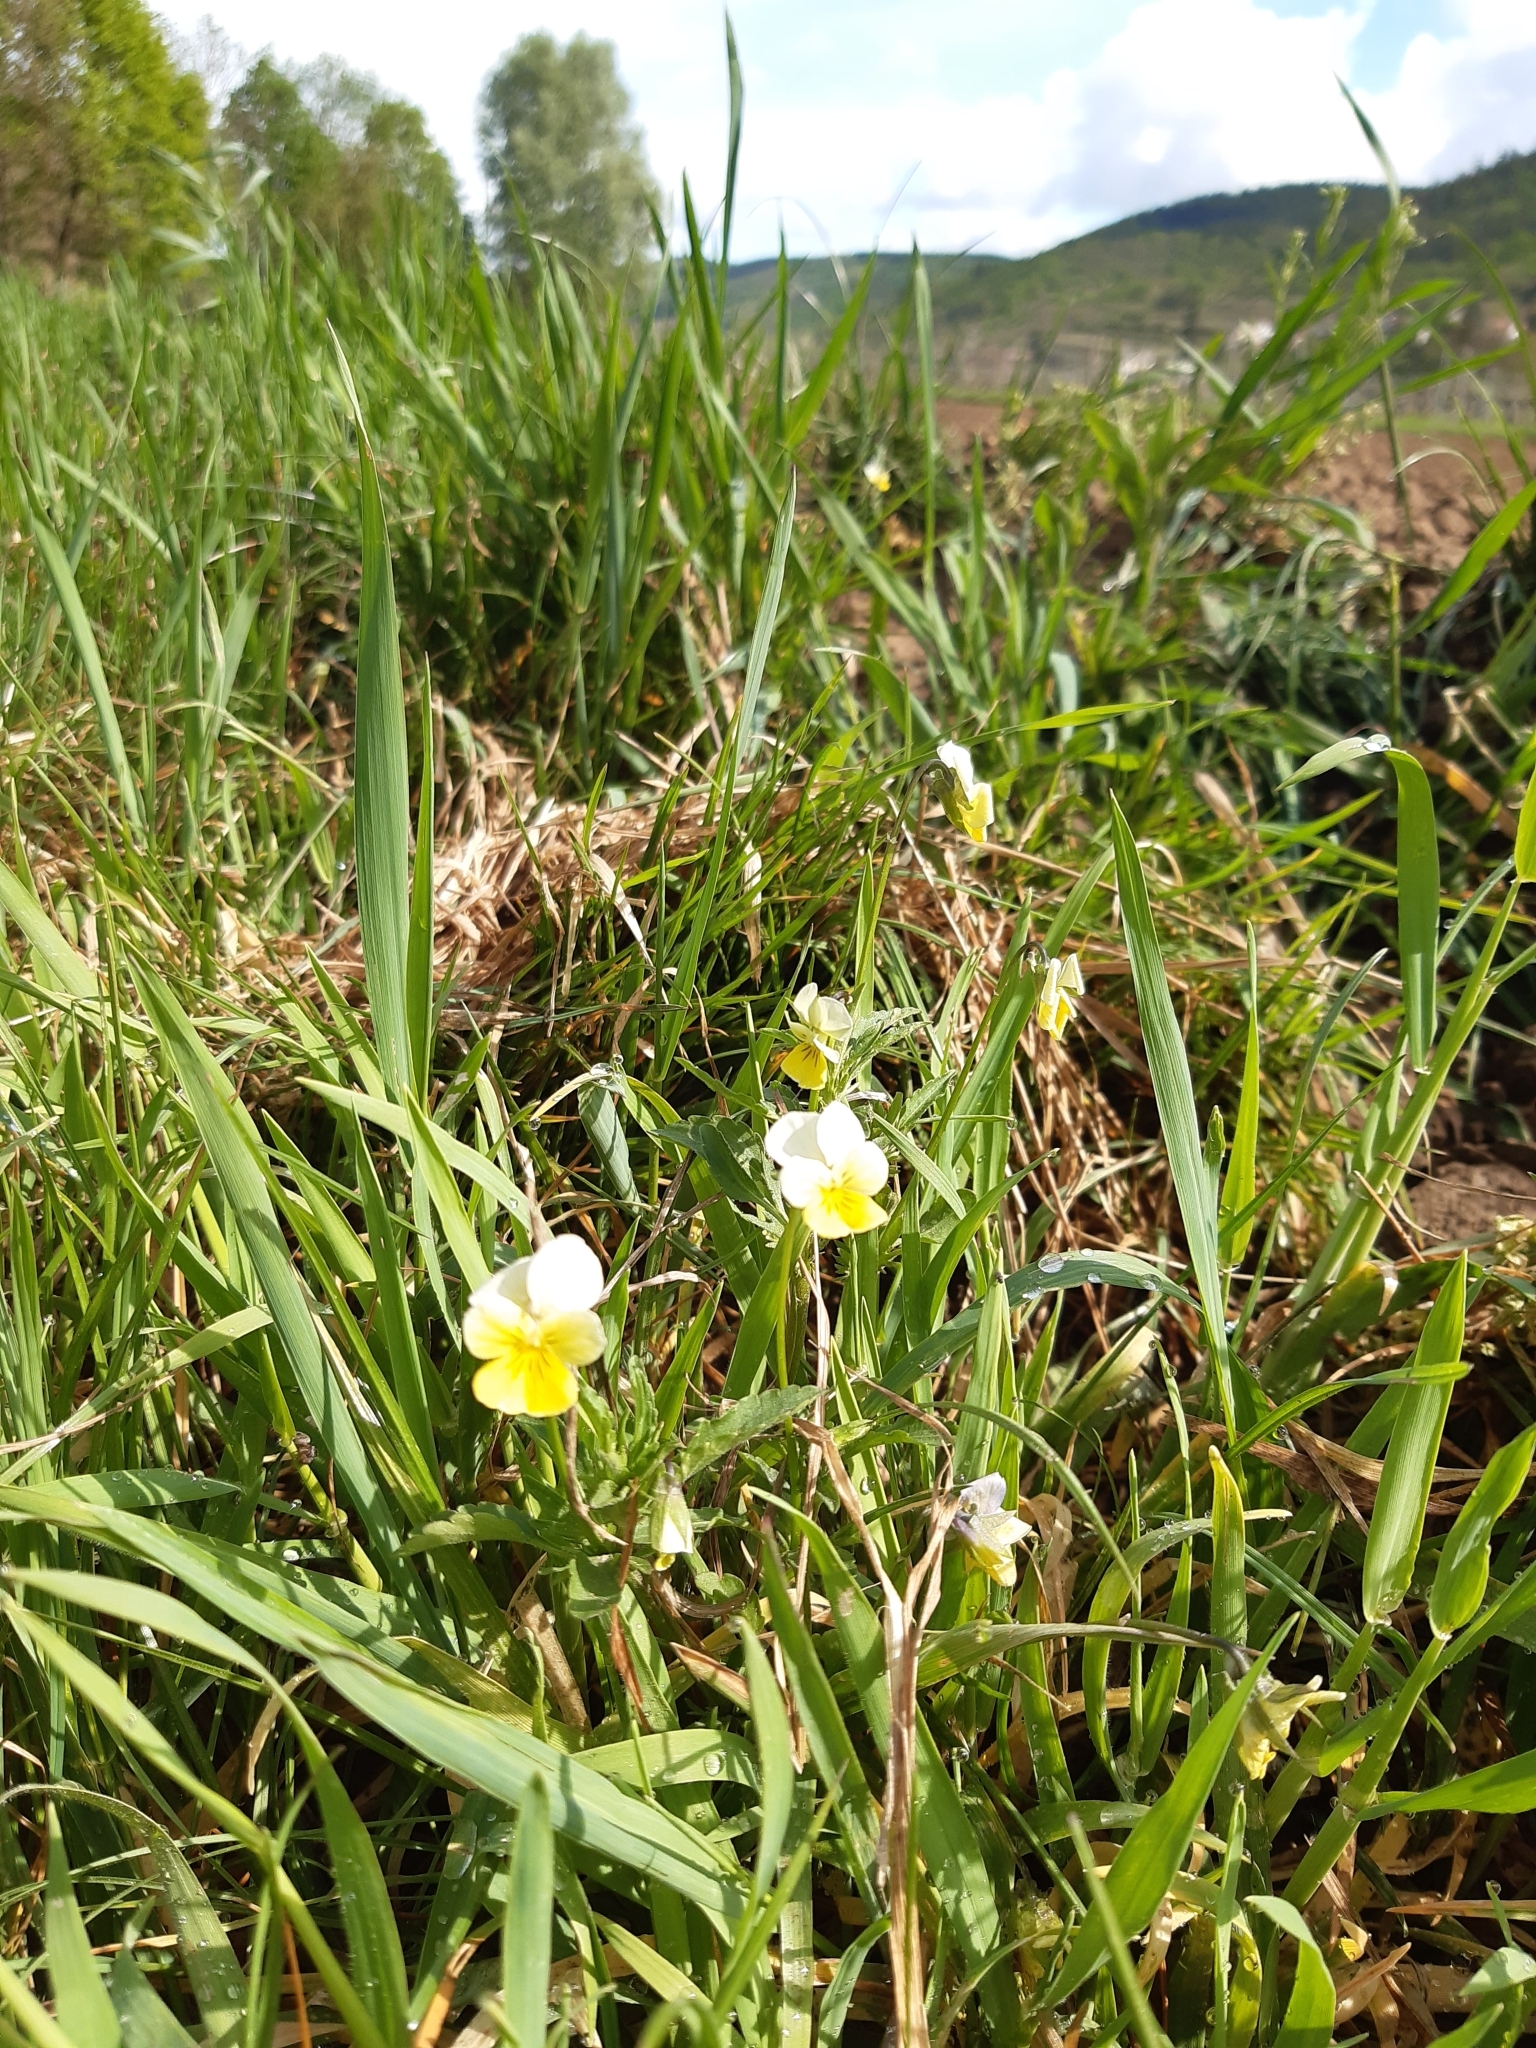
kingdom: Plantae
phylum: Tracheophyta
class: Magnoliopsida
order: Malpighiales
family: Violaceae
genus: Viola
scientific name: Viola arvensis
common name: Field pansy
